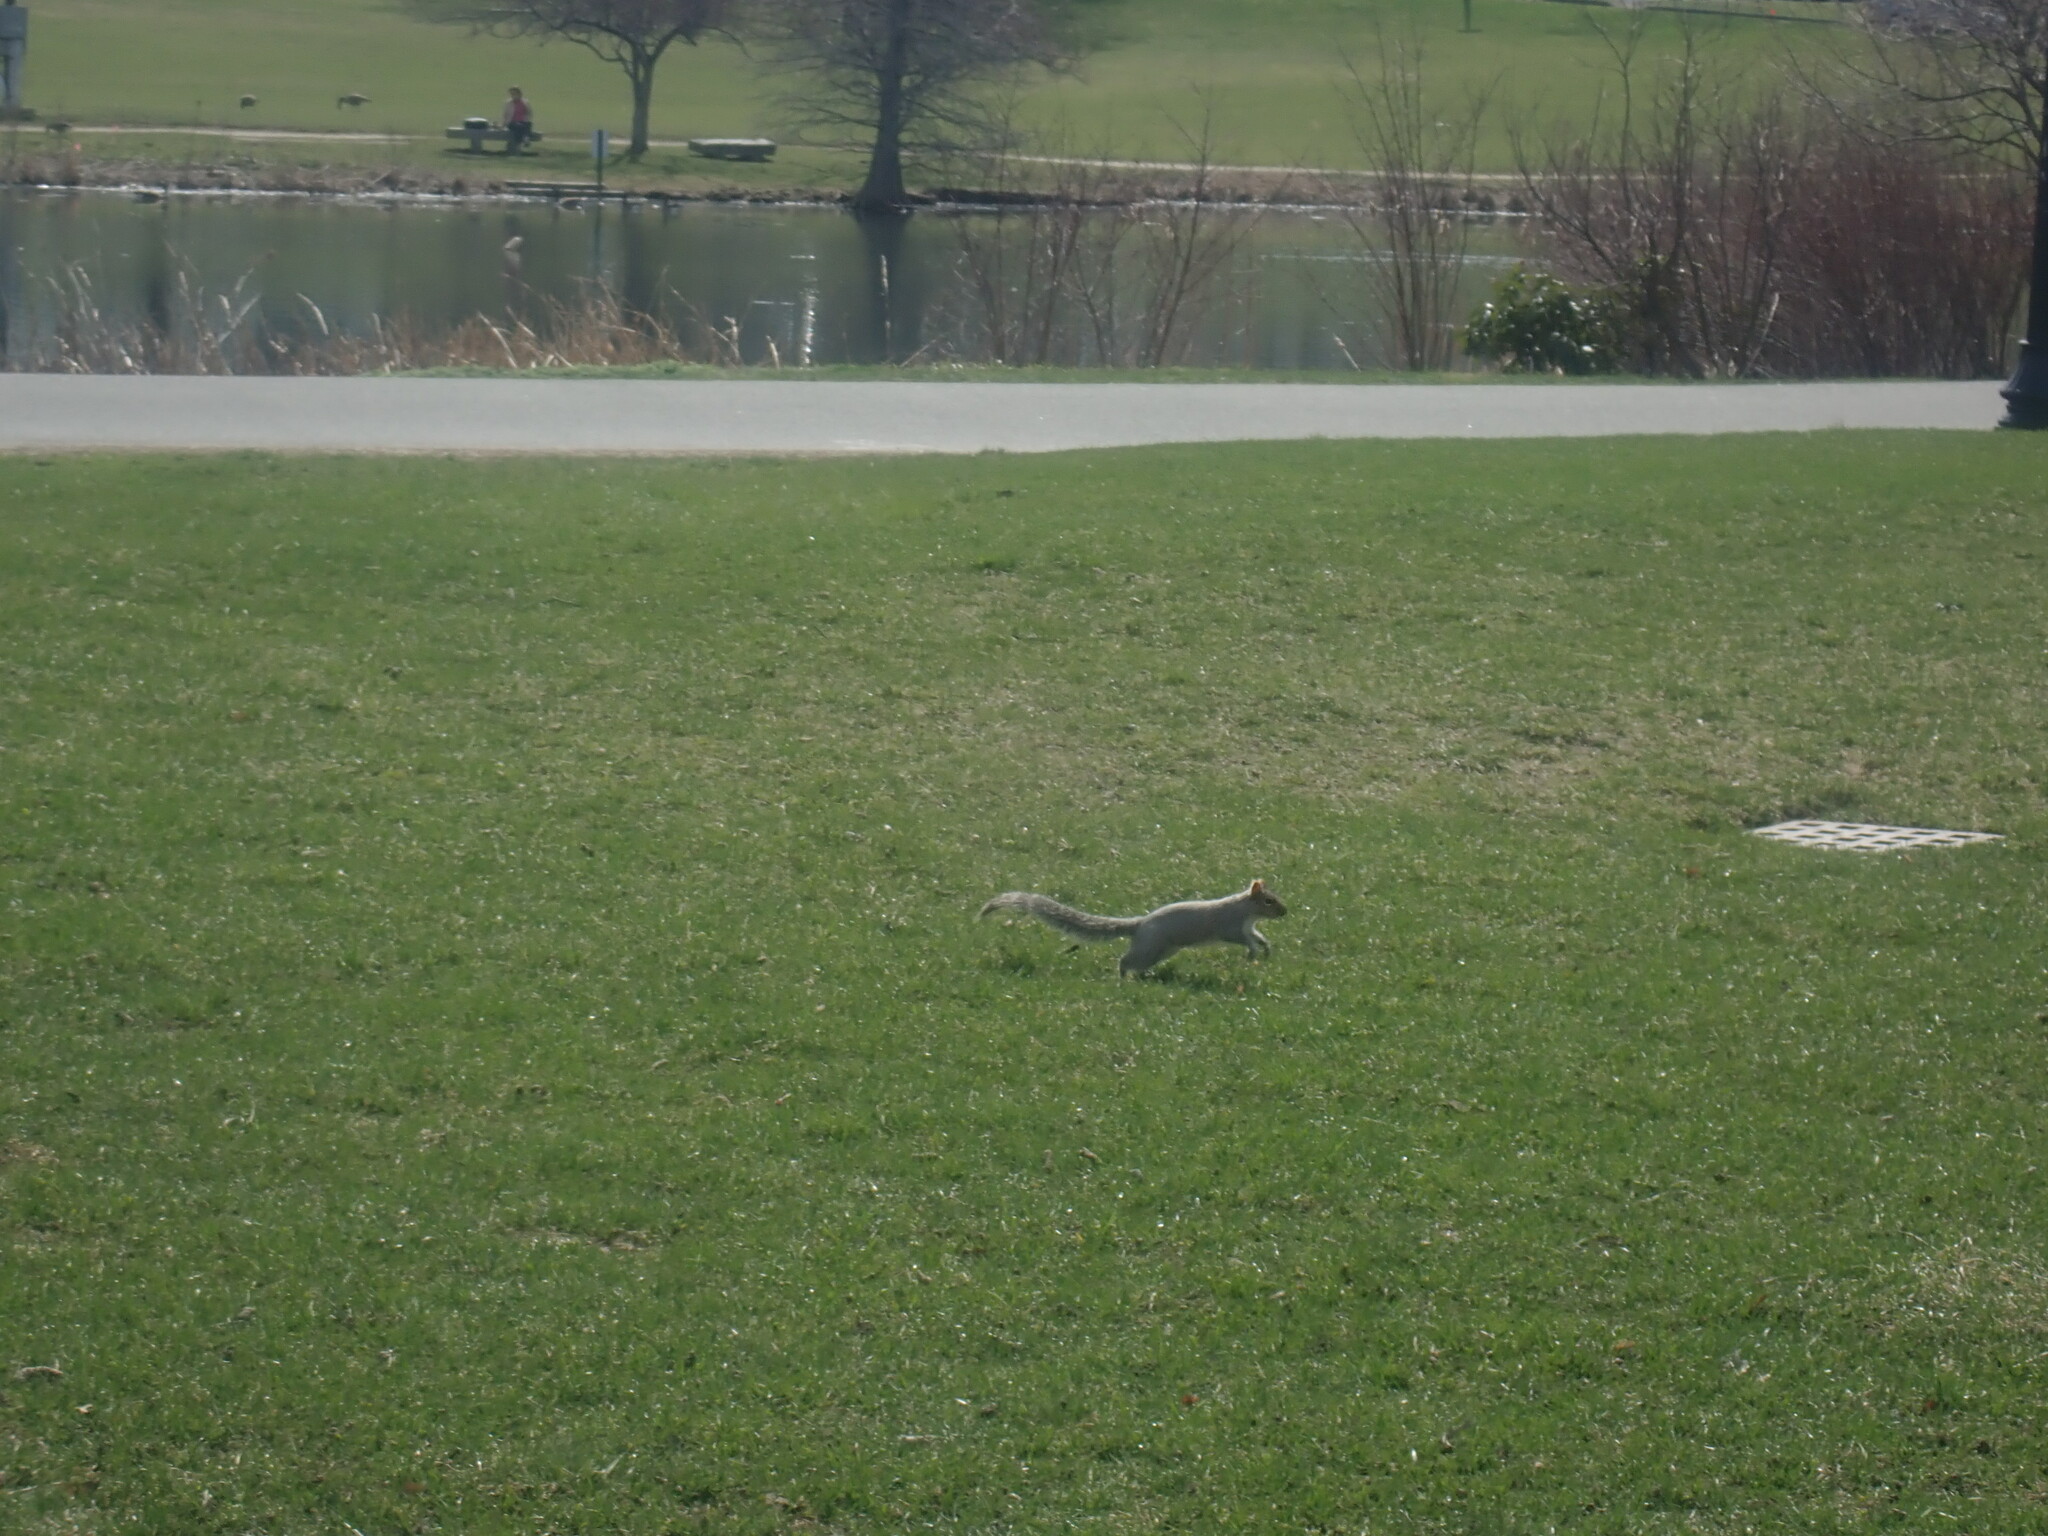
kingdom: Animalia
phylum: Chordata
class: Mammalia
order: Rodentia
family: Sciuridae
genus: Sciurus
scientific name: Sciurus carolinensis
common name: Eastern gray squirrel
